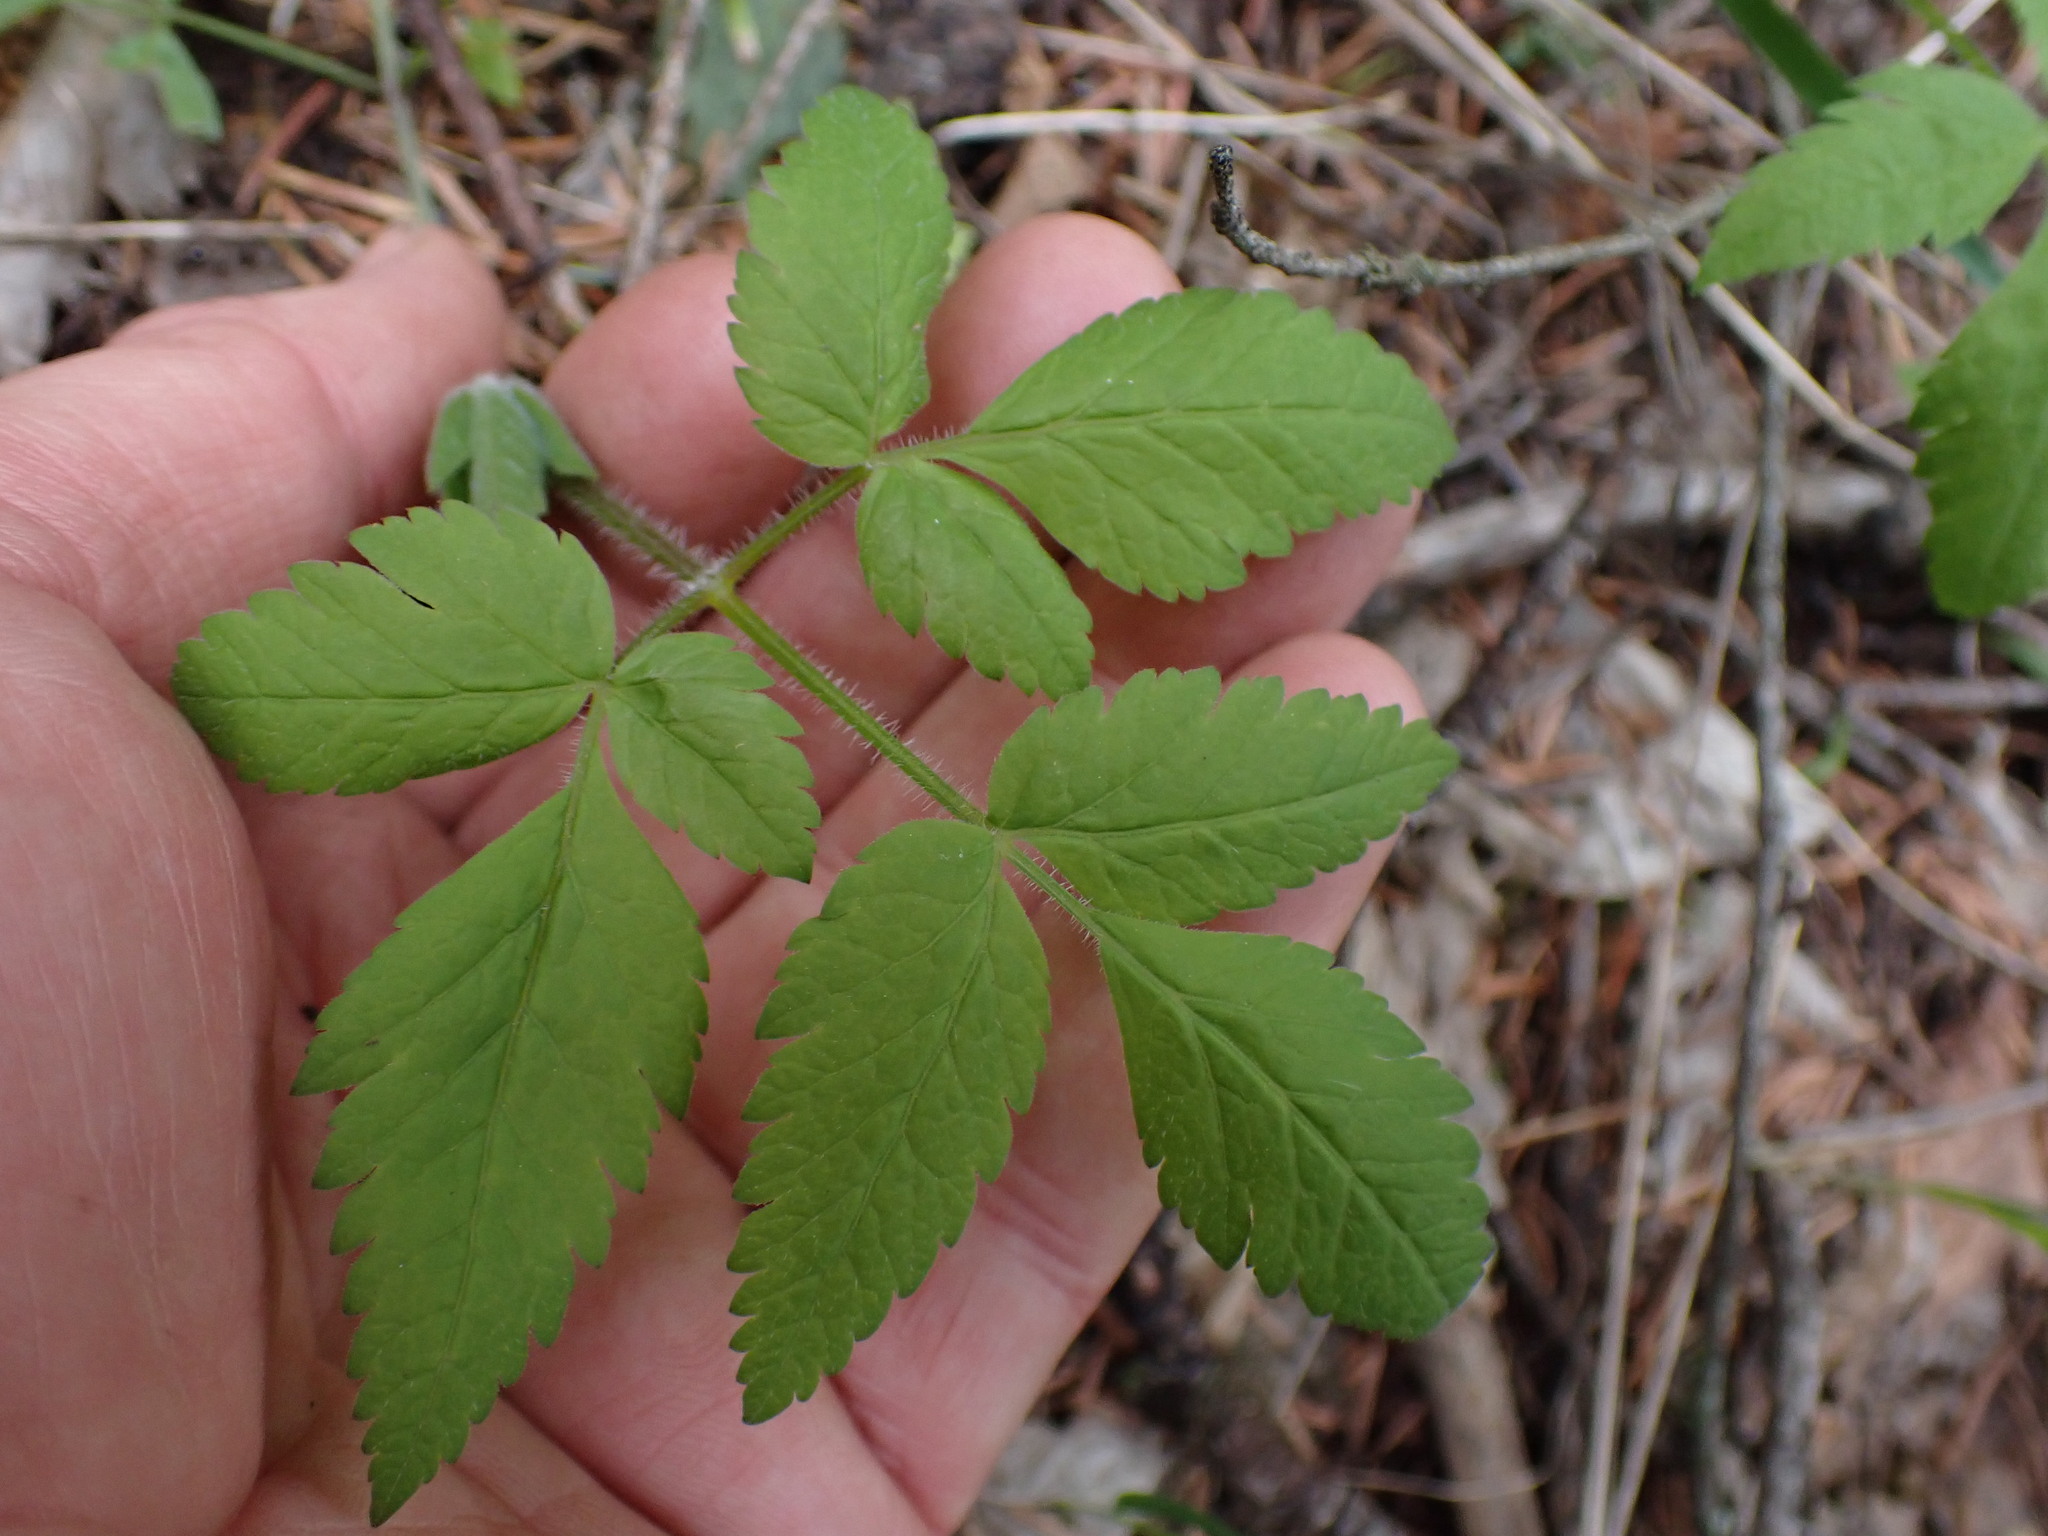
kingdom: Plantae
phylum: Tracheophyta
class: Magnoliopsida
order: Apiales
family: Apiaceae
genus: Osmorhiza
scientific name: Osmorhiza berteroi
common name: Mountain sweet cicely
